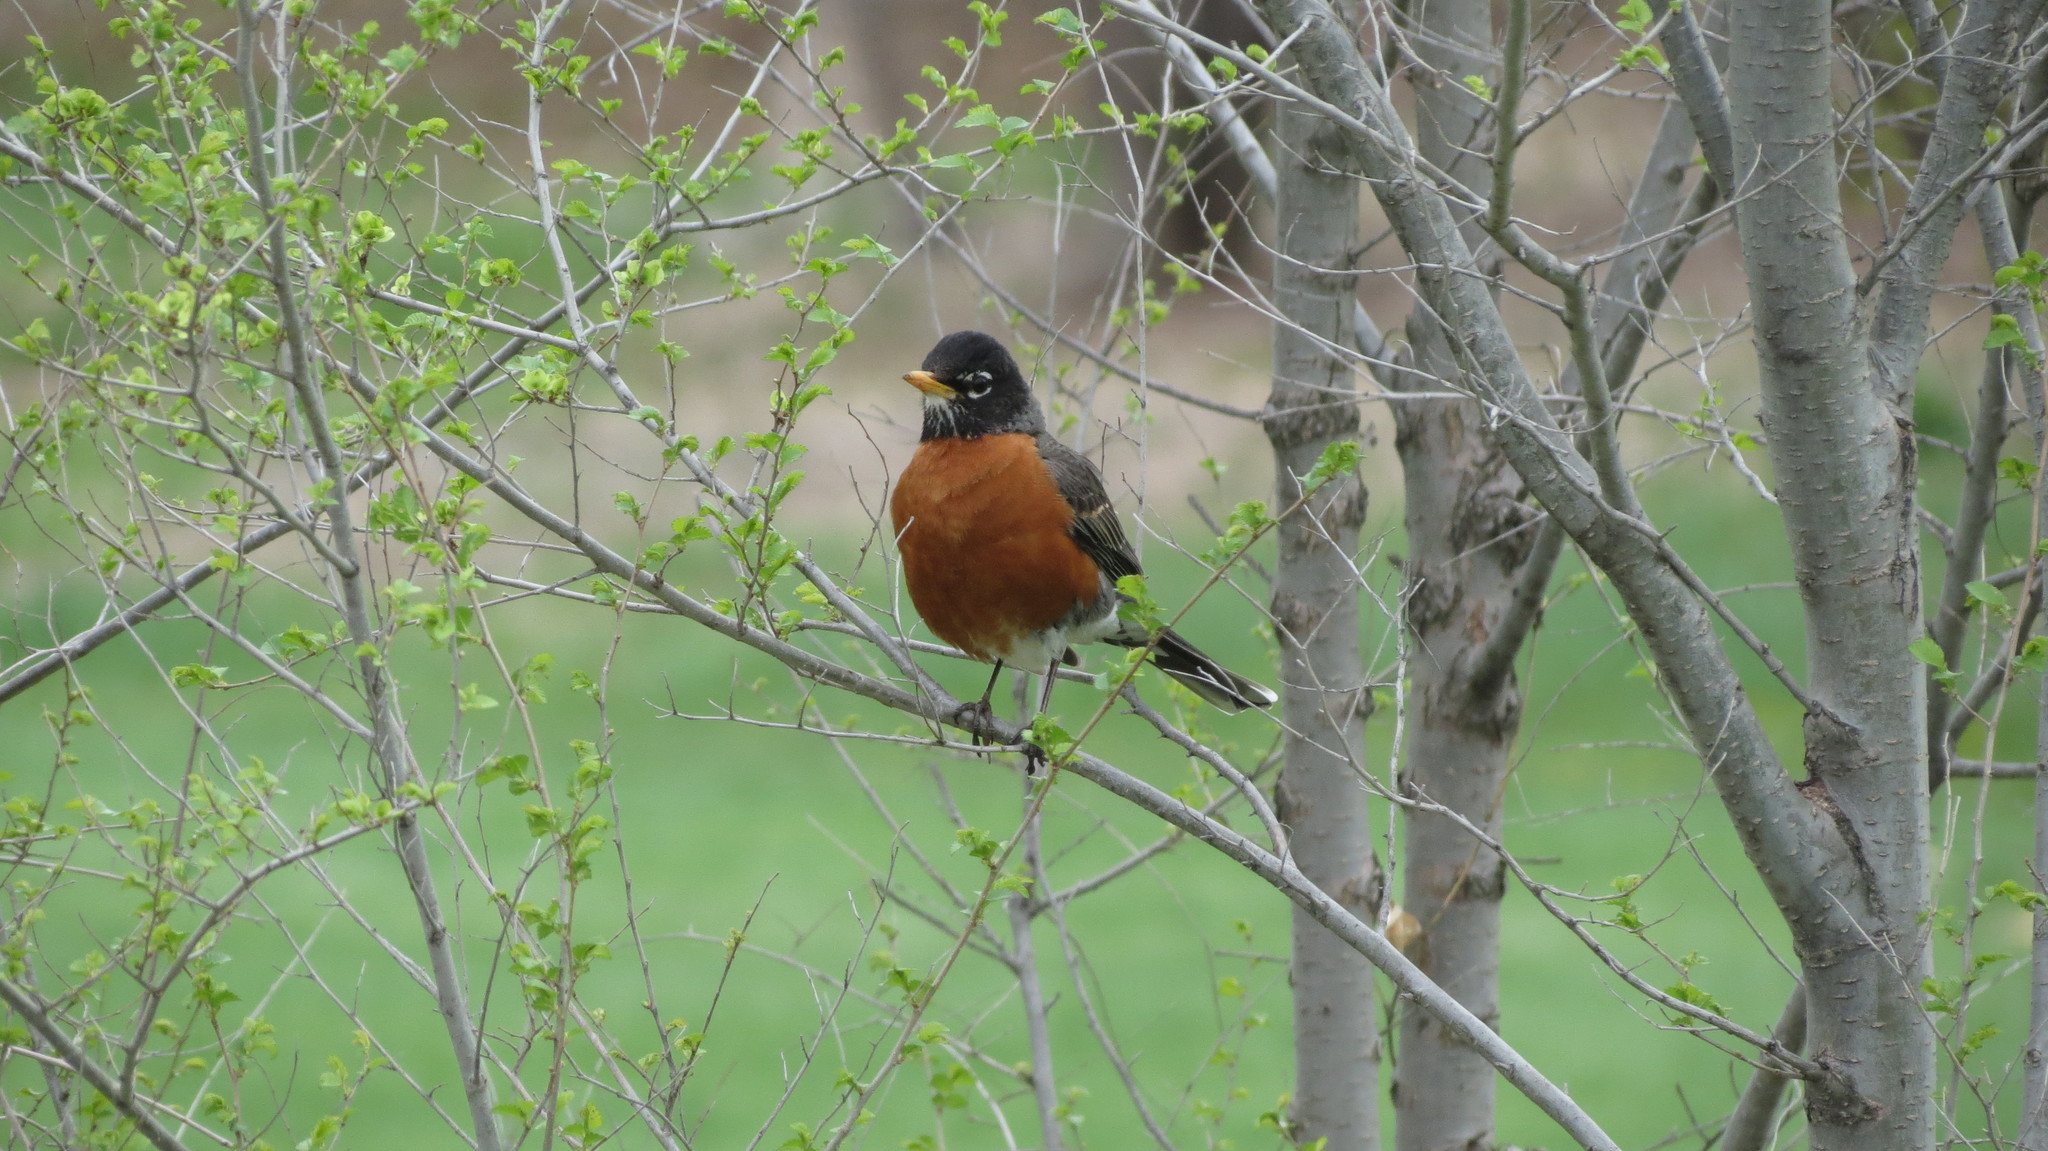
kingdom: Animalia
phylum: Chordata
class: Aves
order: Passeriformes
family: Turdidae
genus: Turdus
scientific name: Turdus migratorius
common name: American robin
